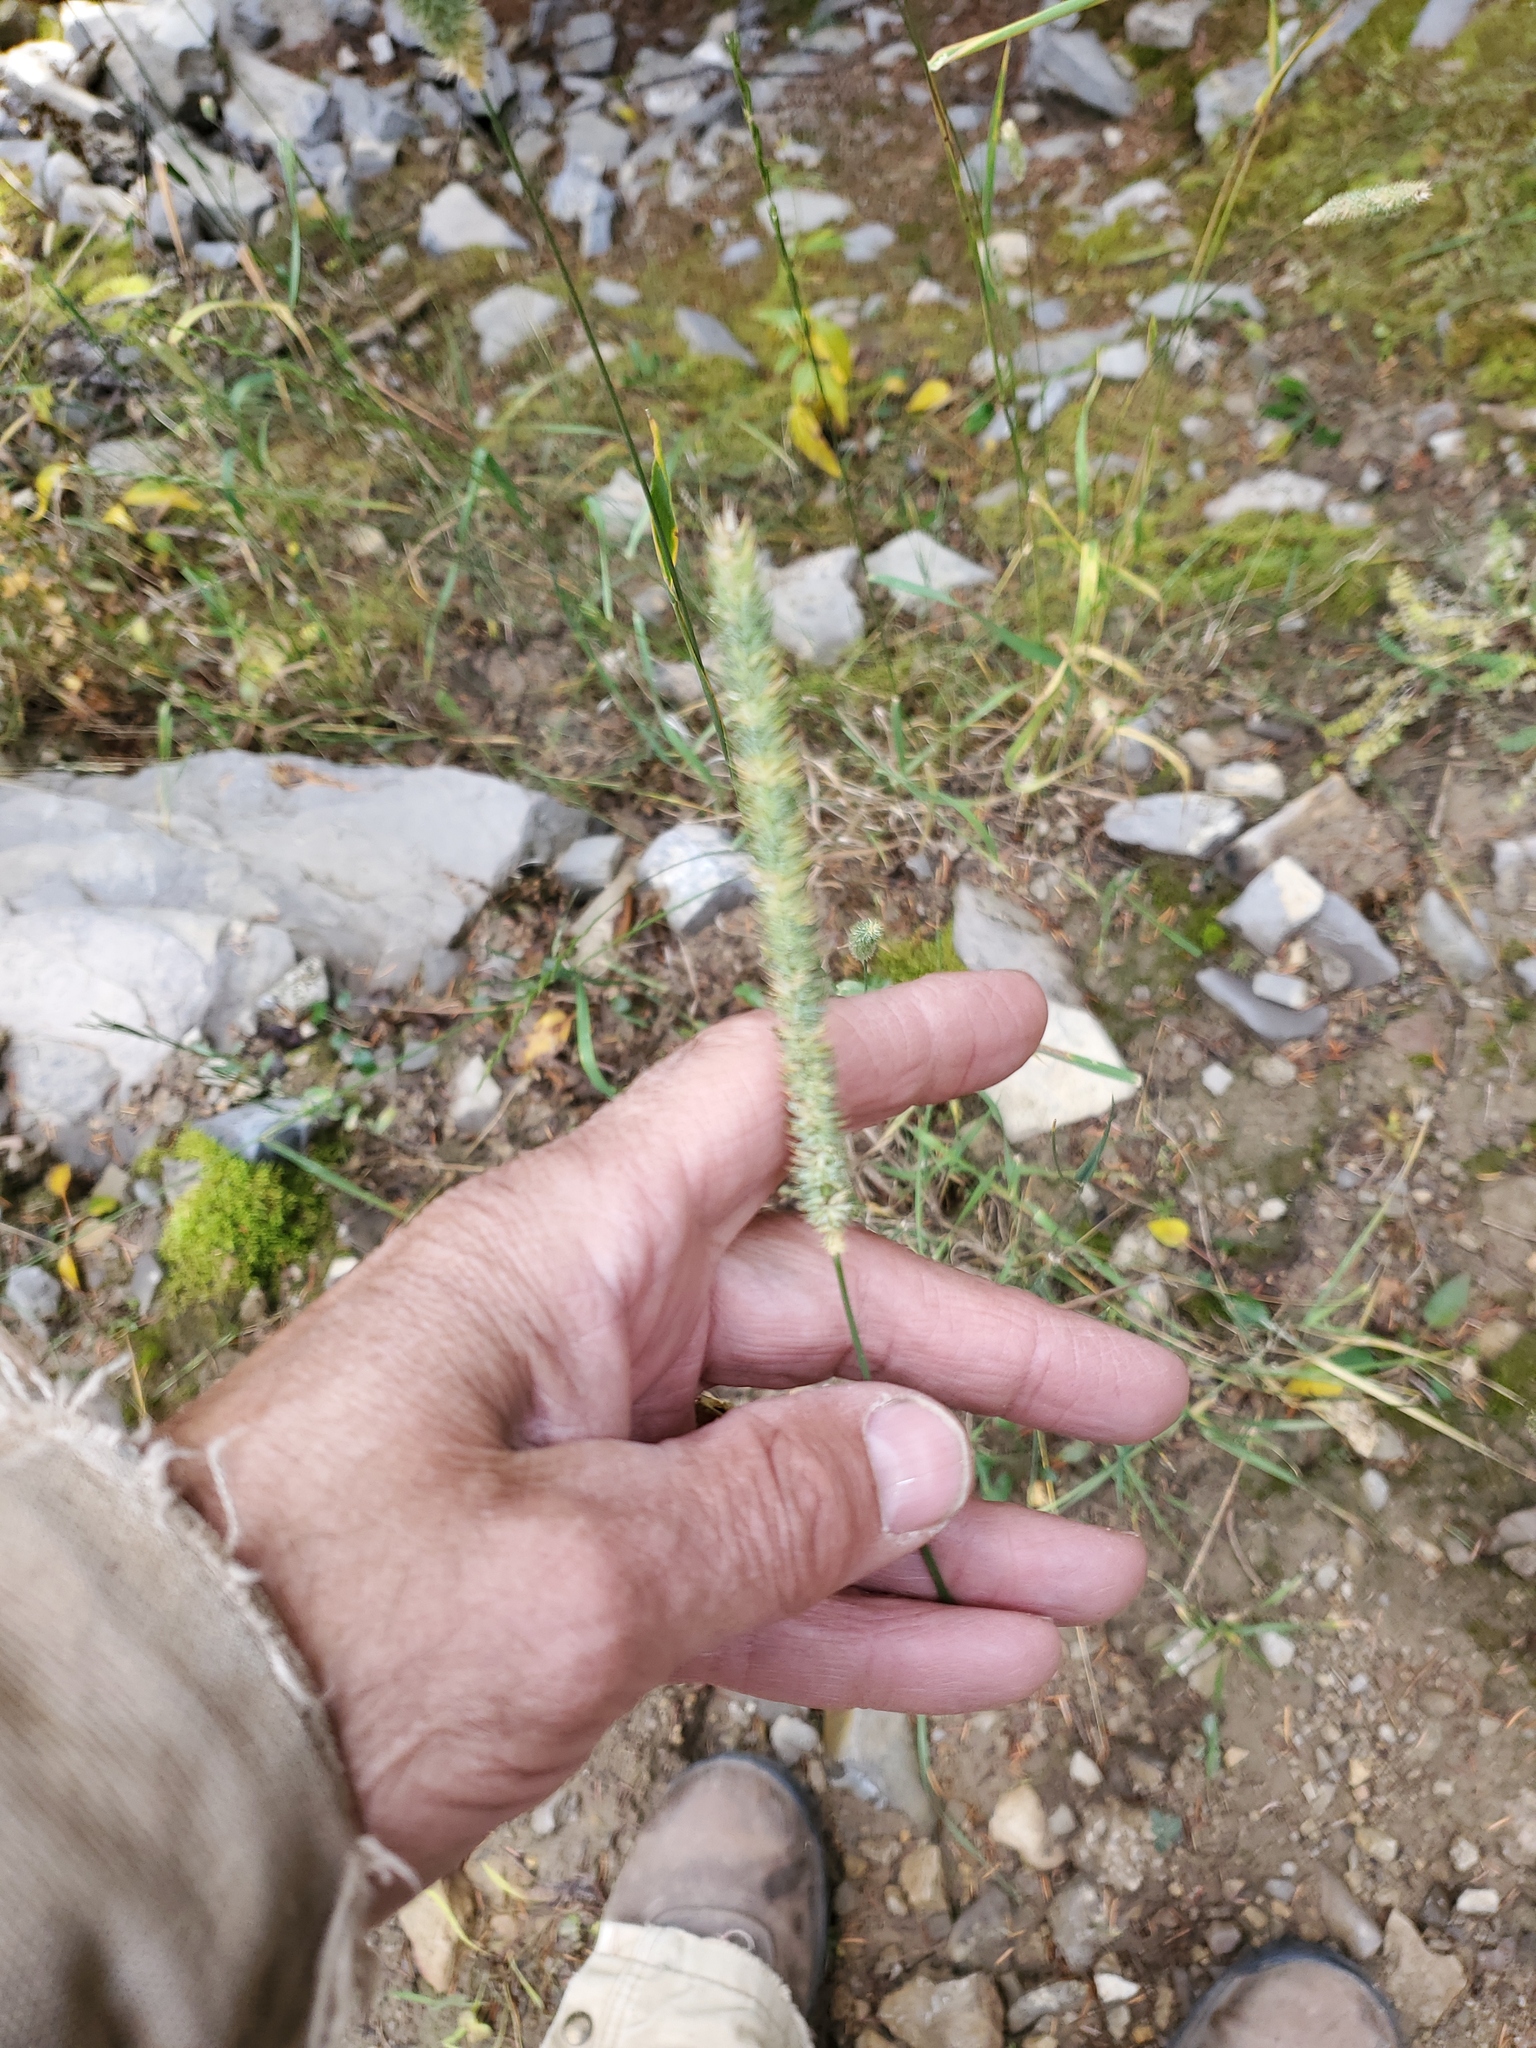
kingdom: Plantae
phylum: Tracheophyta
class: Liliopsida
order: Poales
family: Poaceae
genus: Phleum
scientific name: Phleum pratense
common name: Timothy grass
